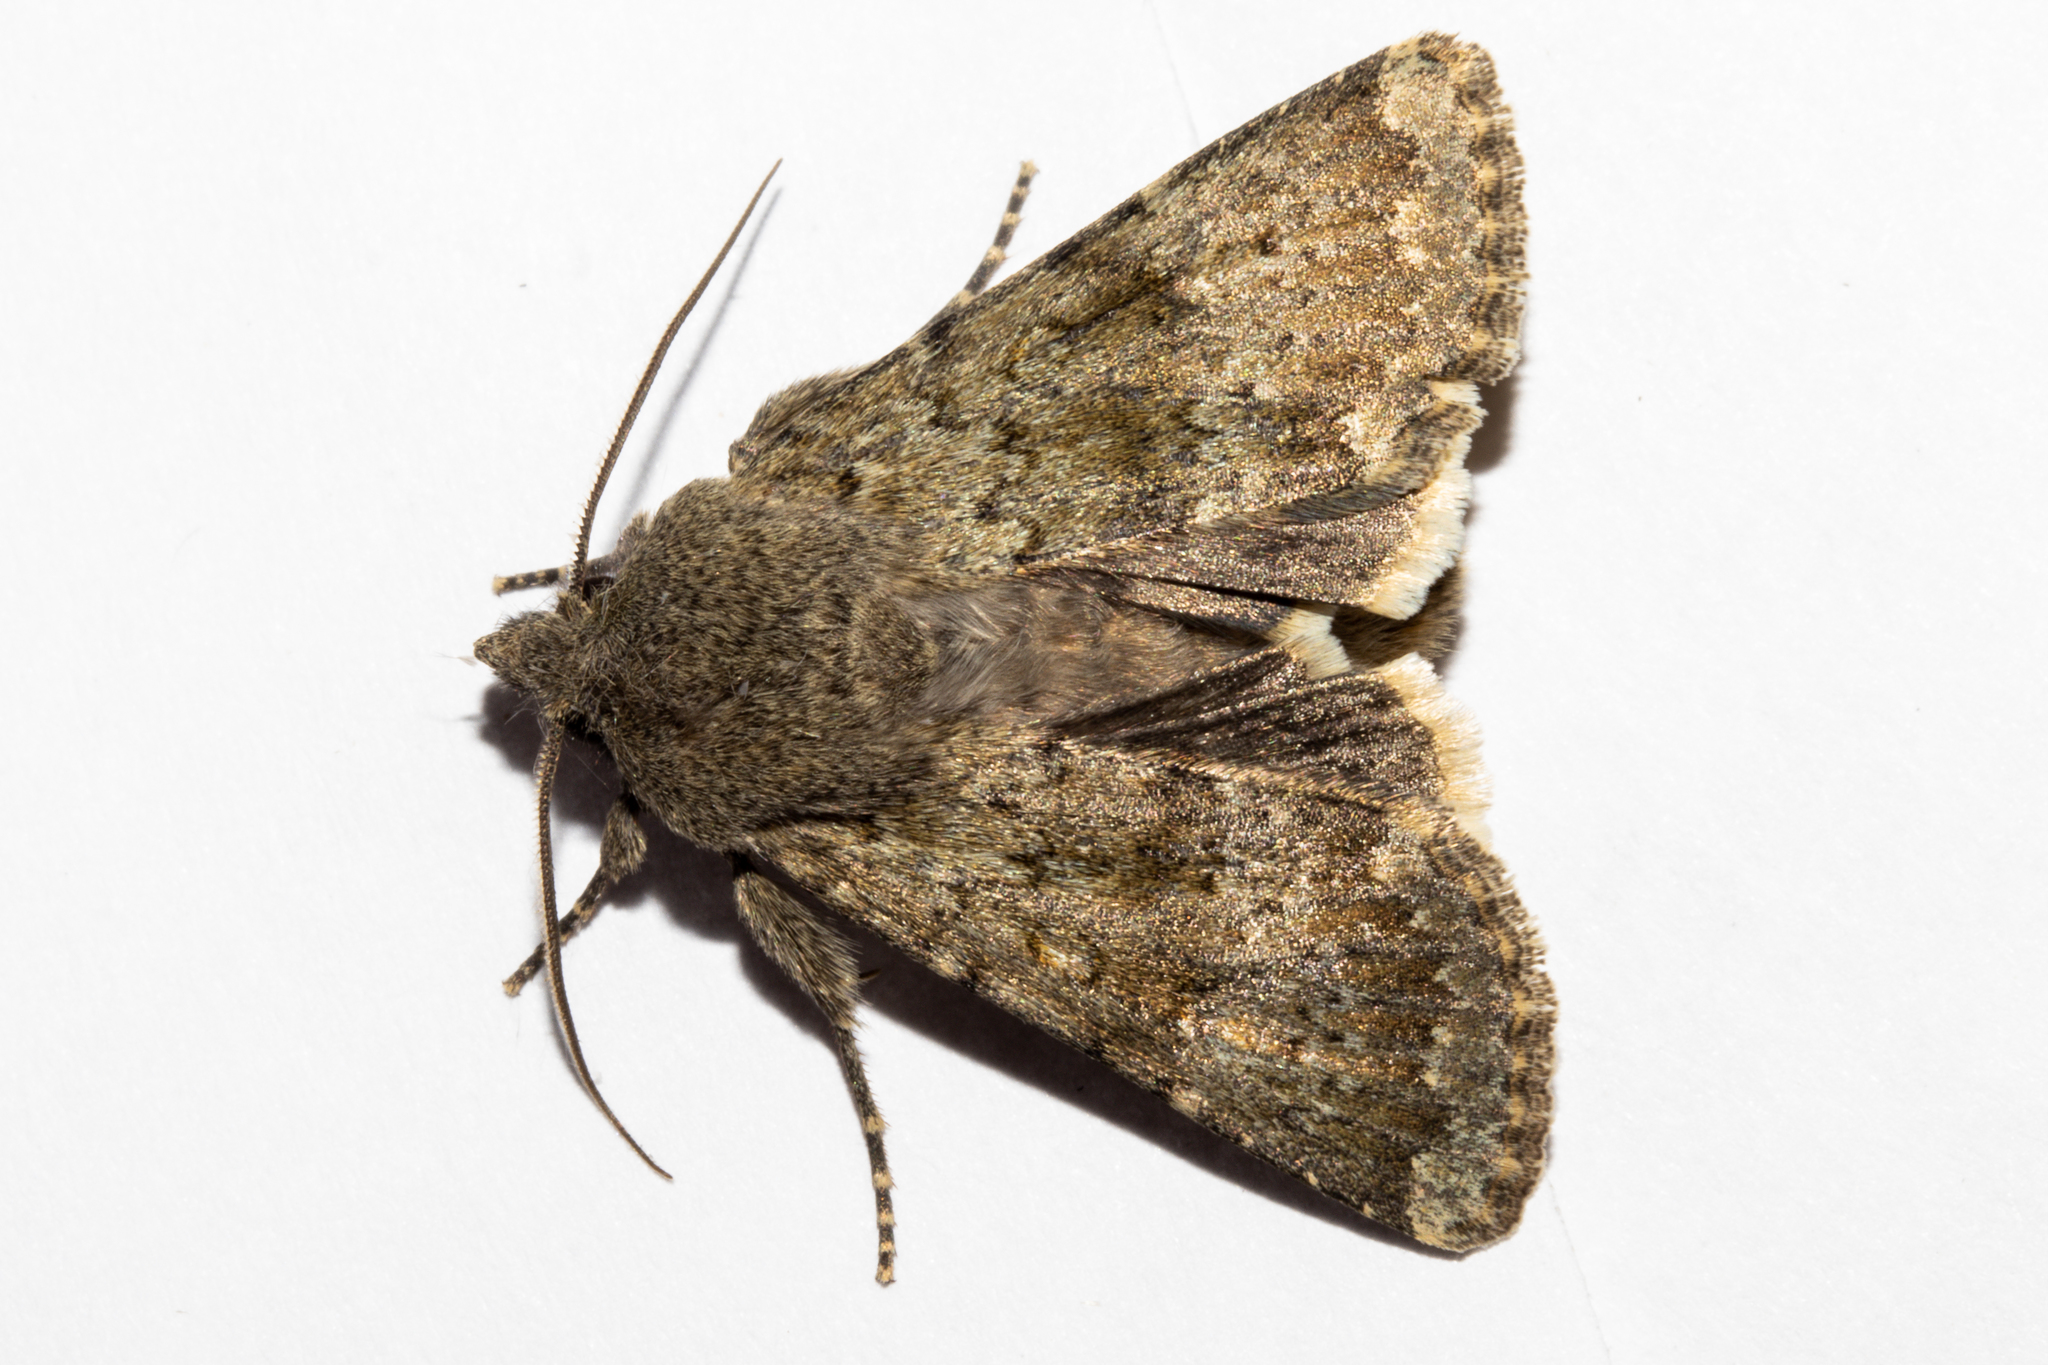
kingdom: Animalia
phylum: Arthropoda
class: Insecta
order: Lepidoptera
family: Noctuidae
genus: Ichneutica
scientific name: Ichneutica moderata
